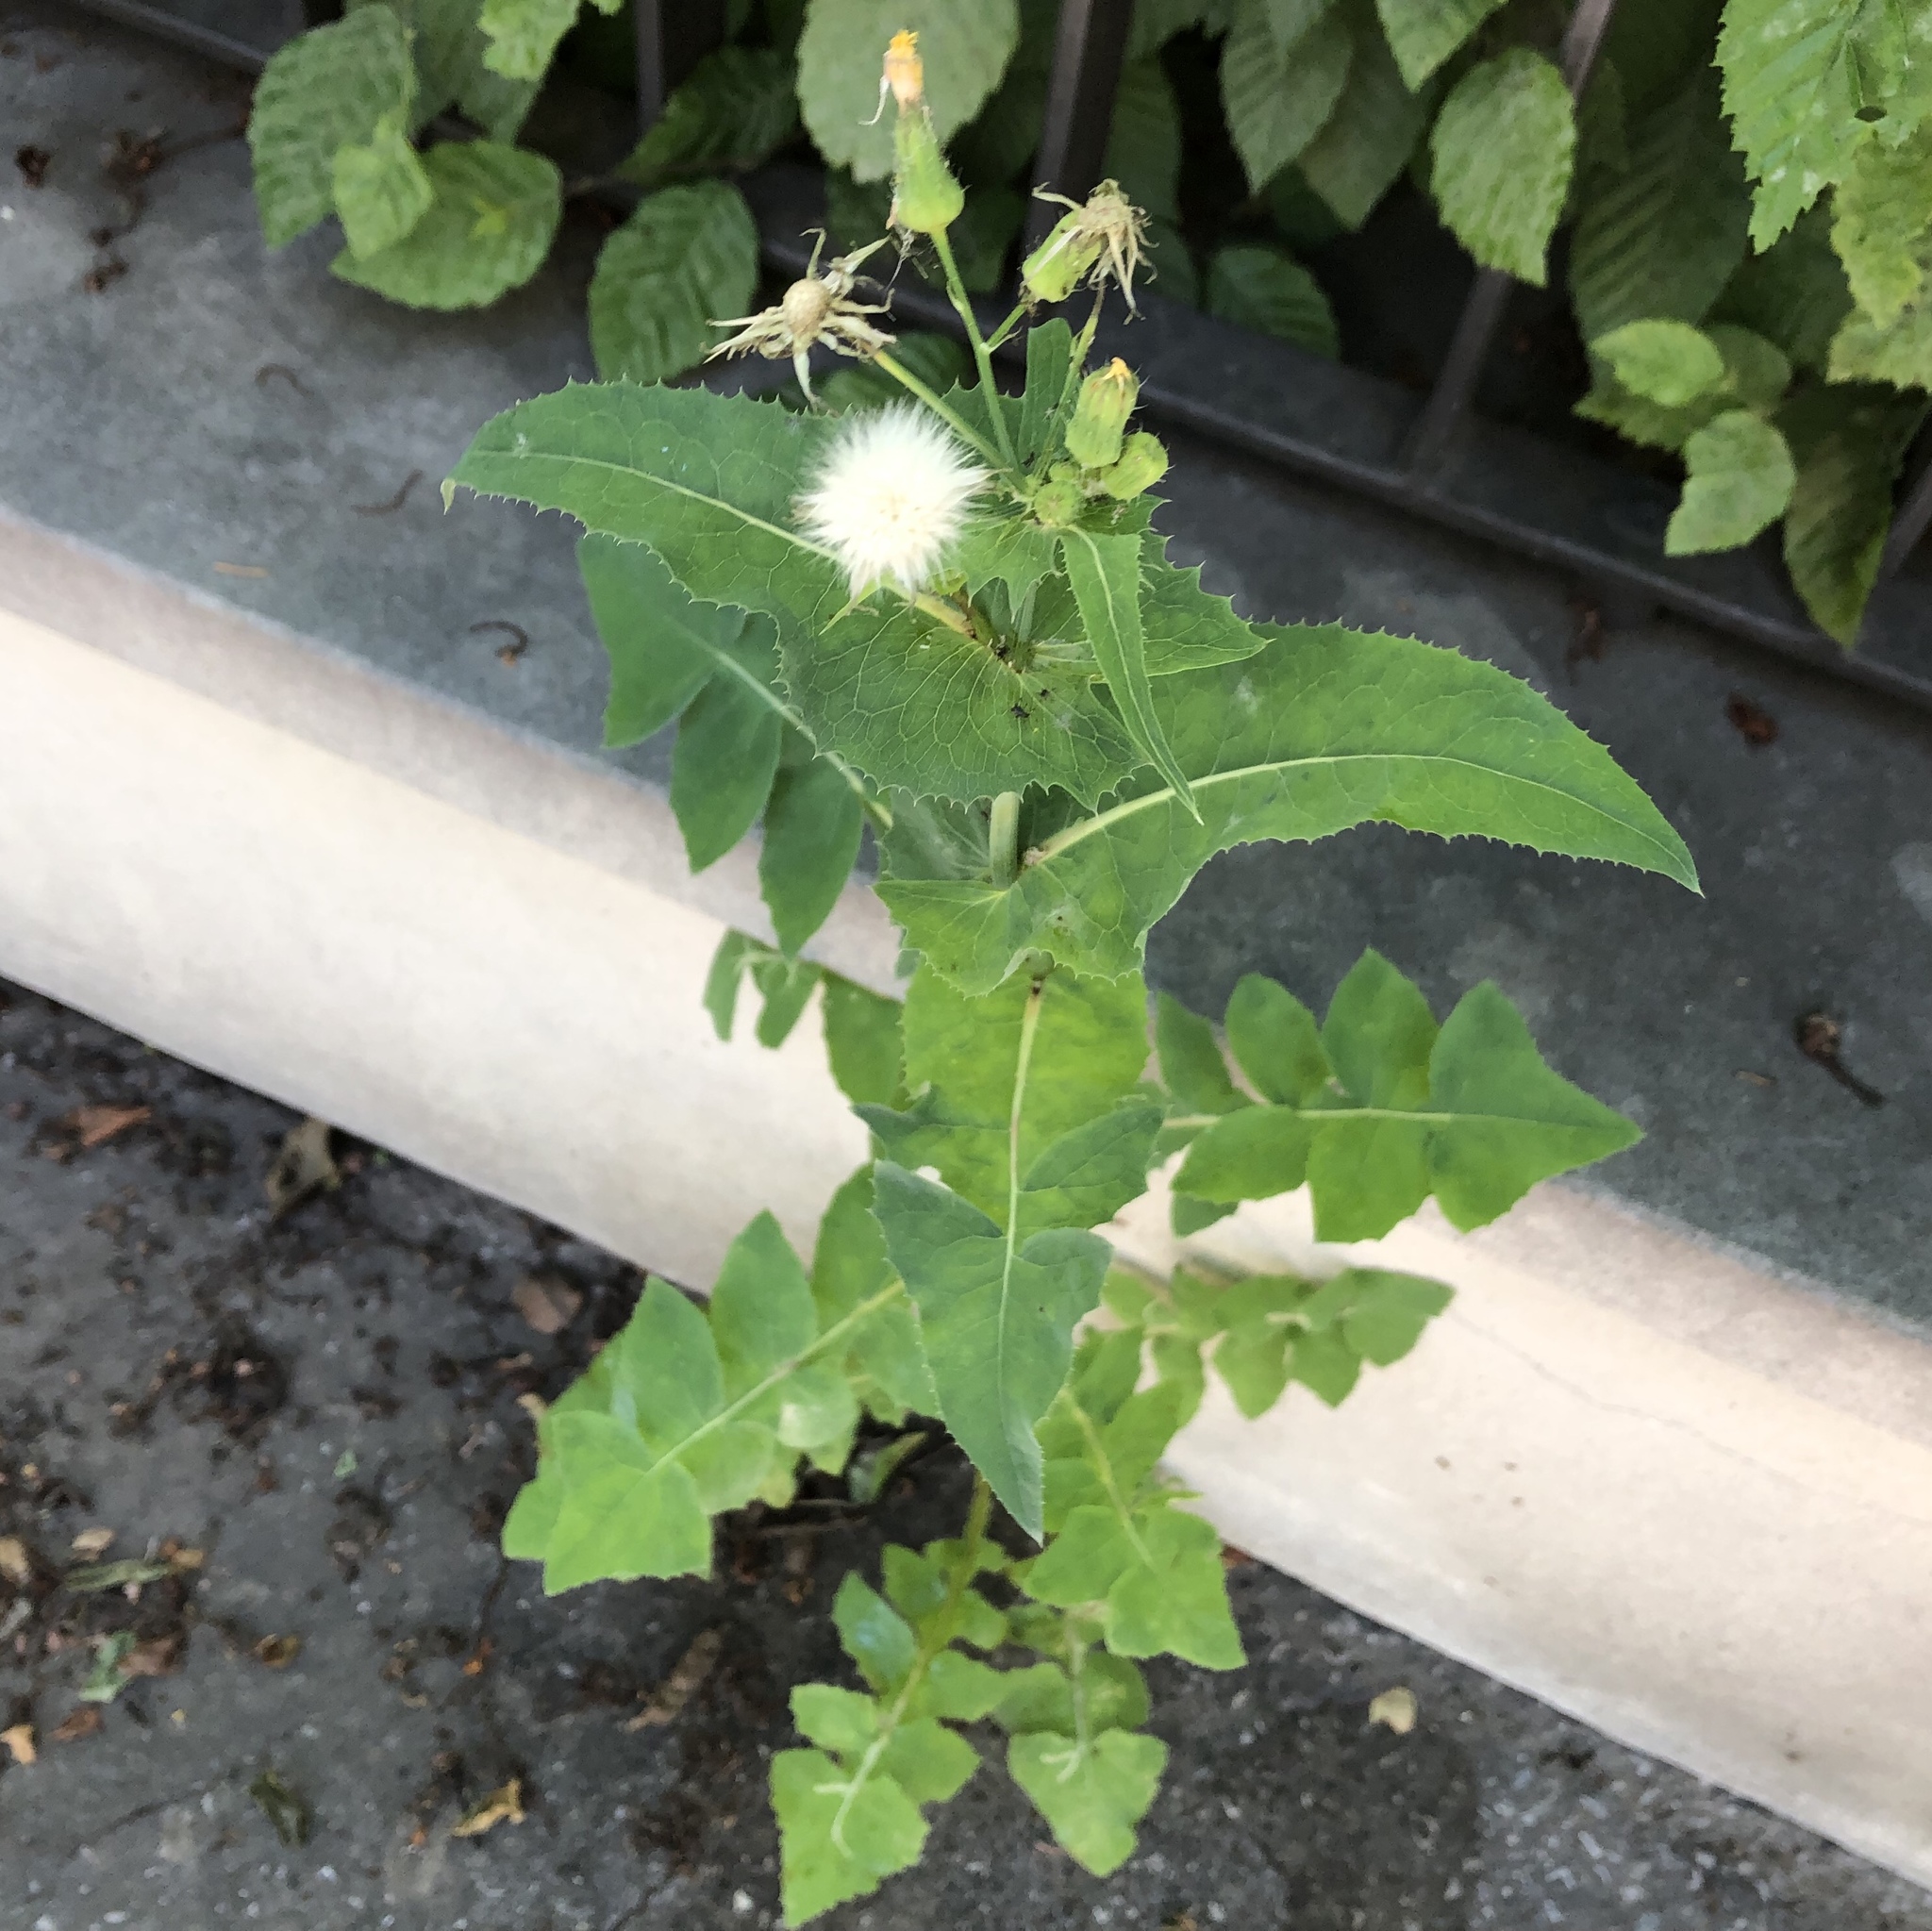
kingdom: Plantae
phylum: Tracheophyta
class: Magnoliopsida
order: Asterales
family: Asteraceae
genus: Sonchus
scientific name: Sonchus oleraceus
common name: Common sowthistle
